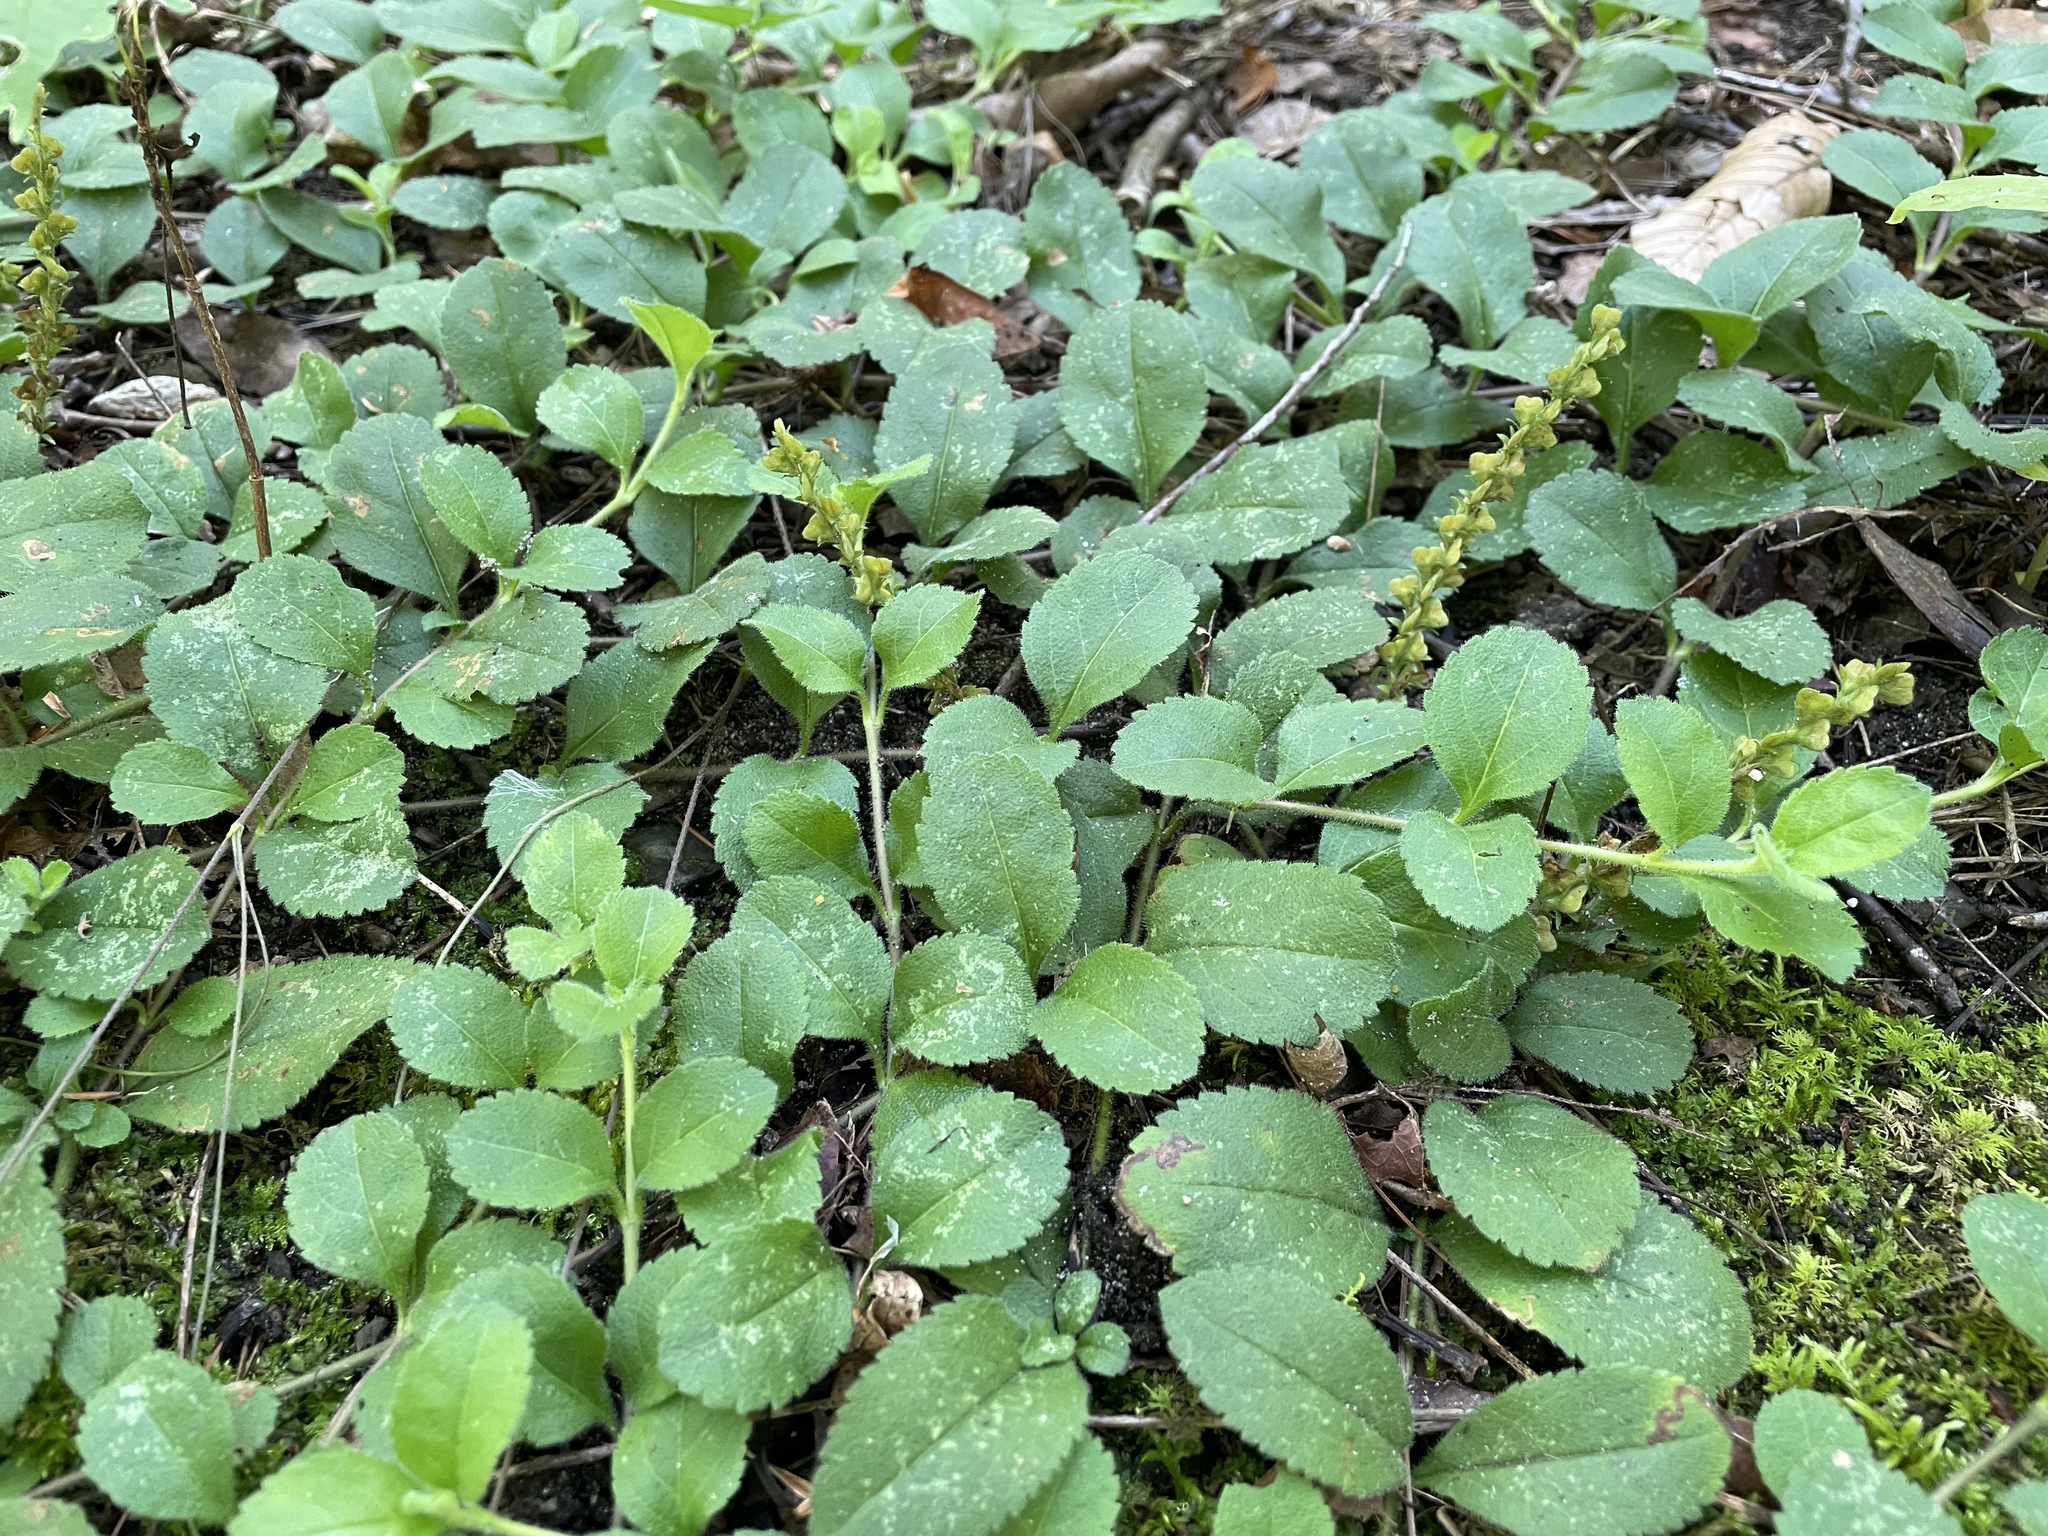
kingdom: Plantae
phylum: Tracheophyta
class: Magnoliopsida
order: Lamiales
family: Plantaginaceae
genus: Veronica
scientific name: Veronica officinalis
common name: Common speedwell
